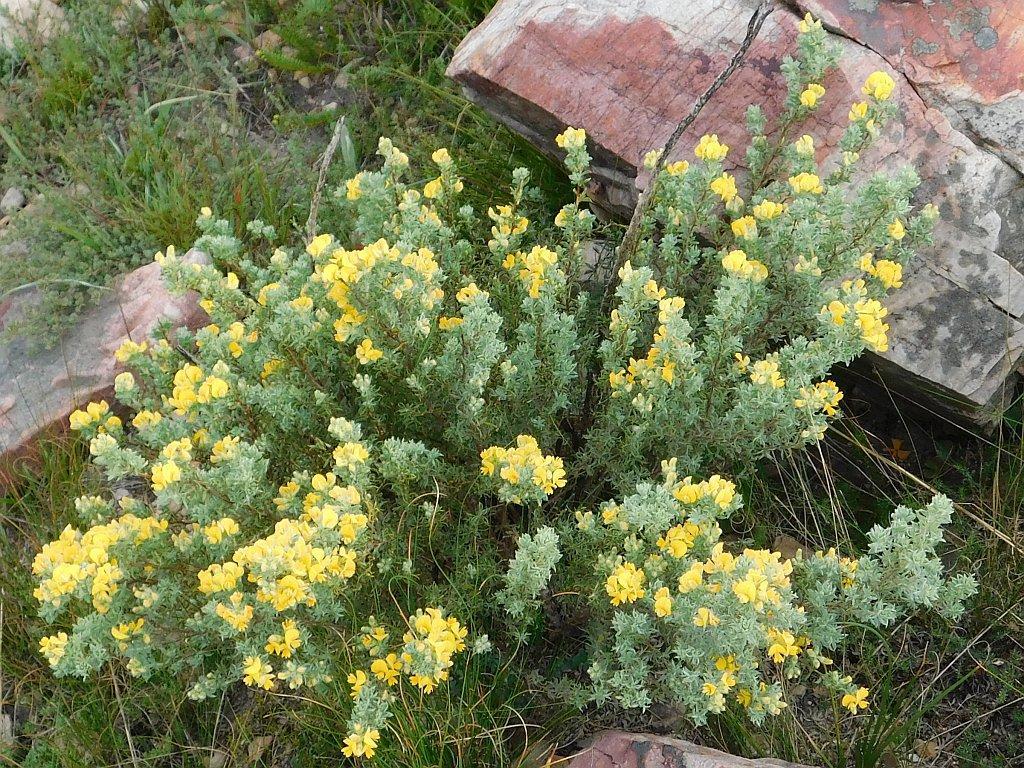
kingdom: Plantae
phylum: Tracheophyta
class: Magnoliopsida
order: Fabales
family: Fabaceae
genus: Aspalathus
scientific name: Aspalathus cytisoides
